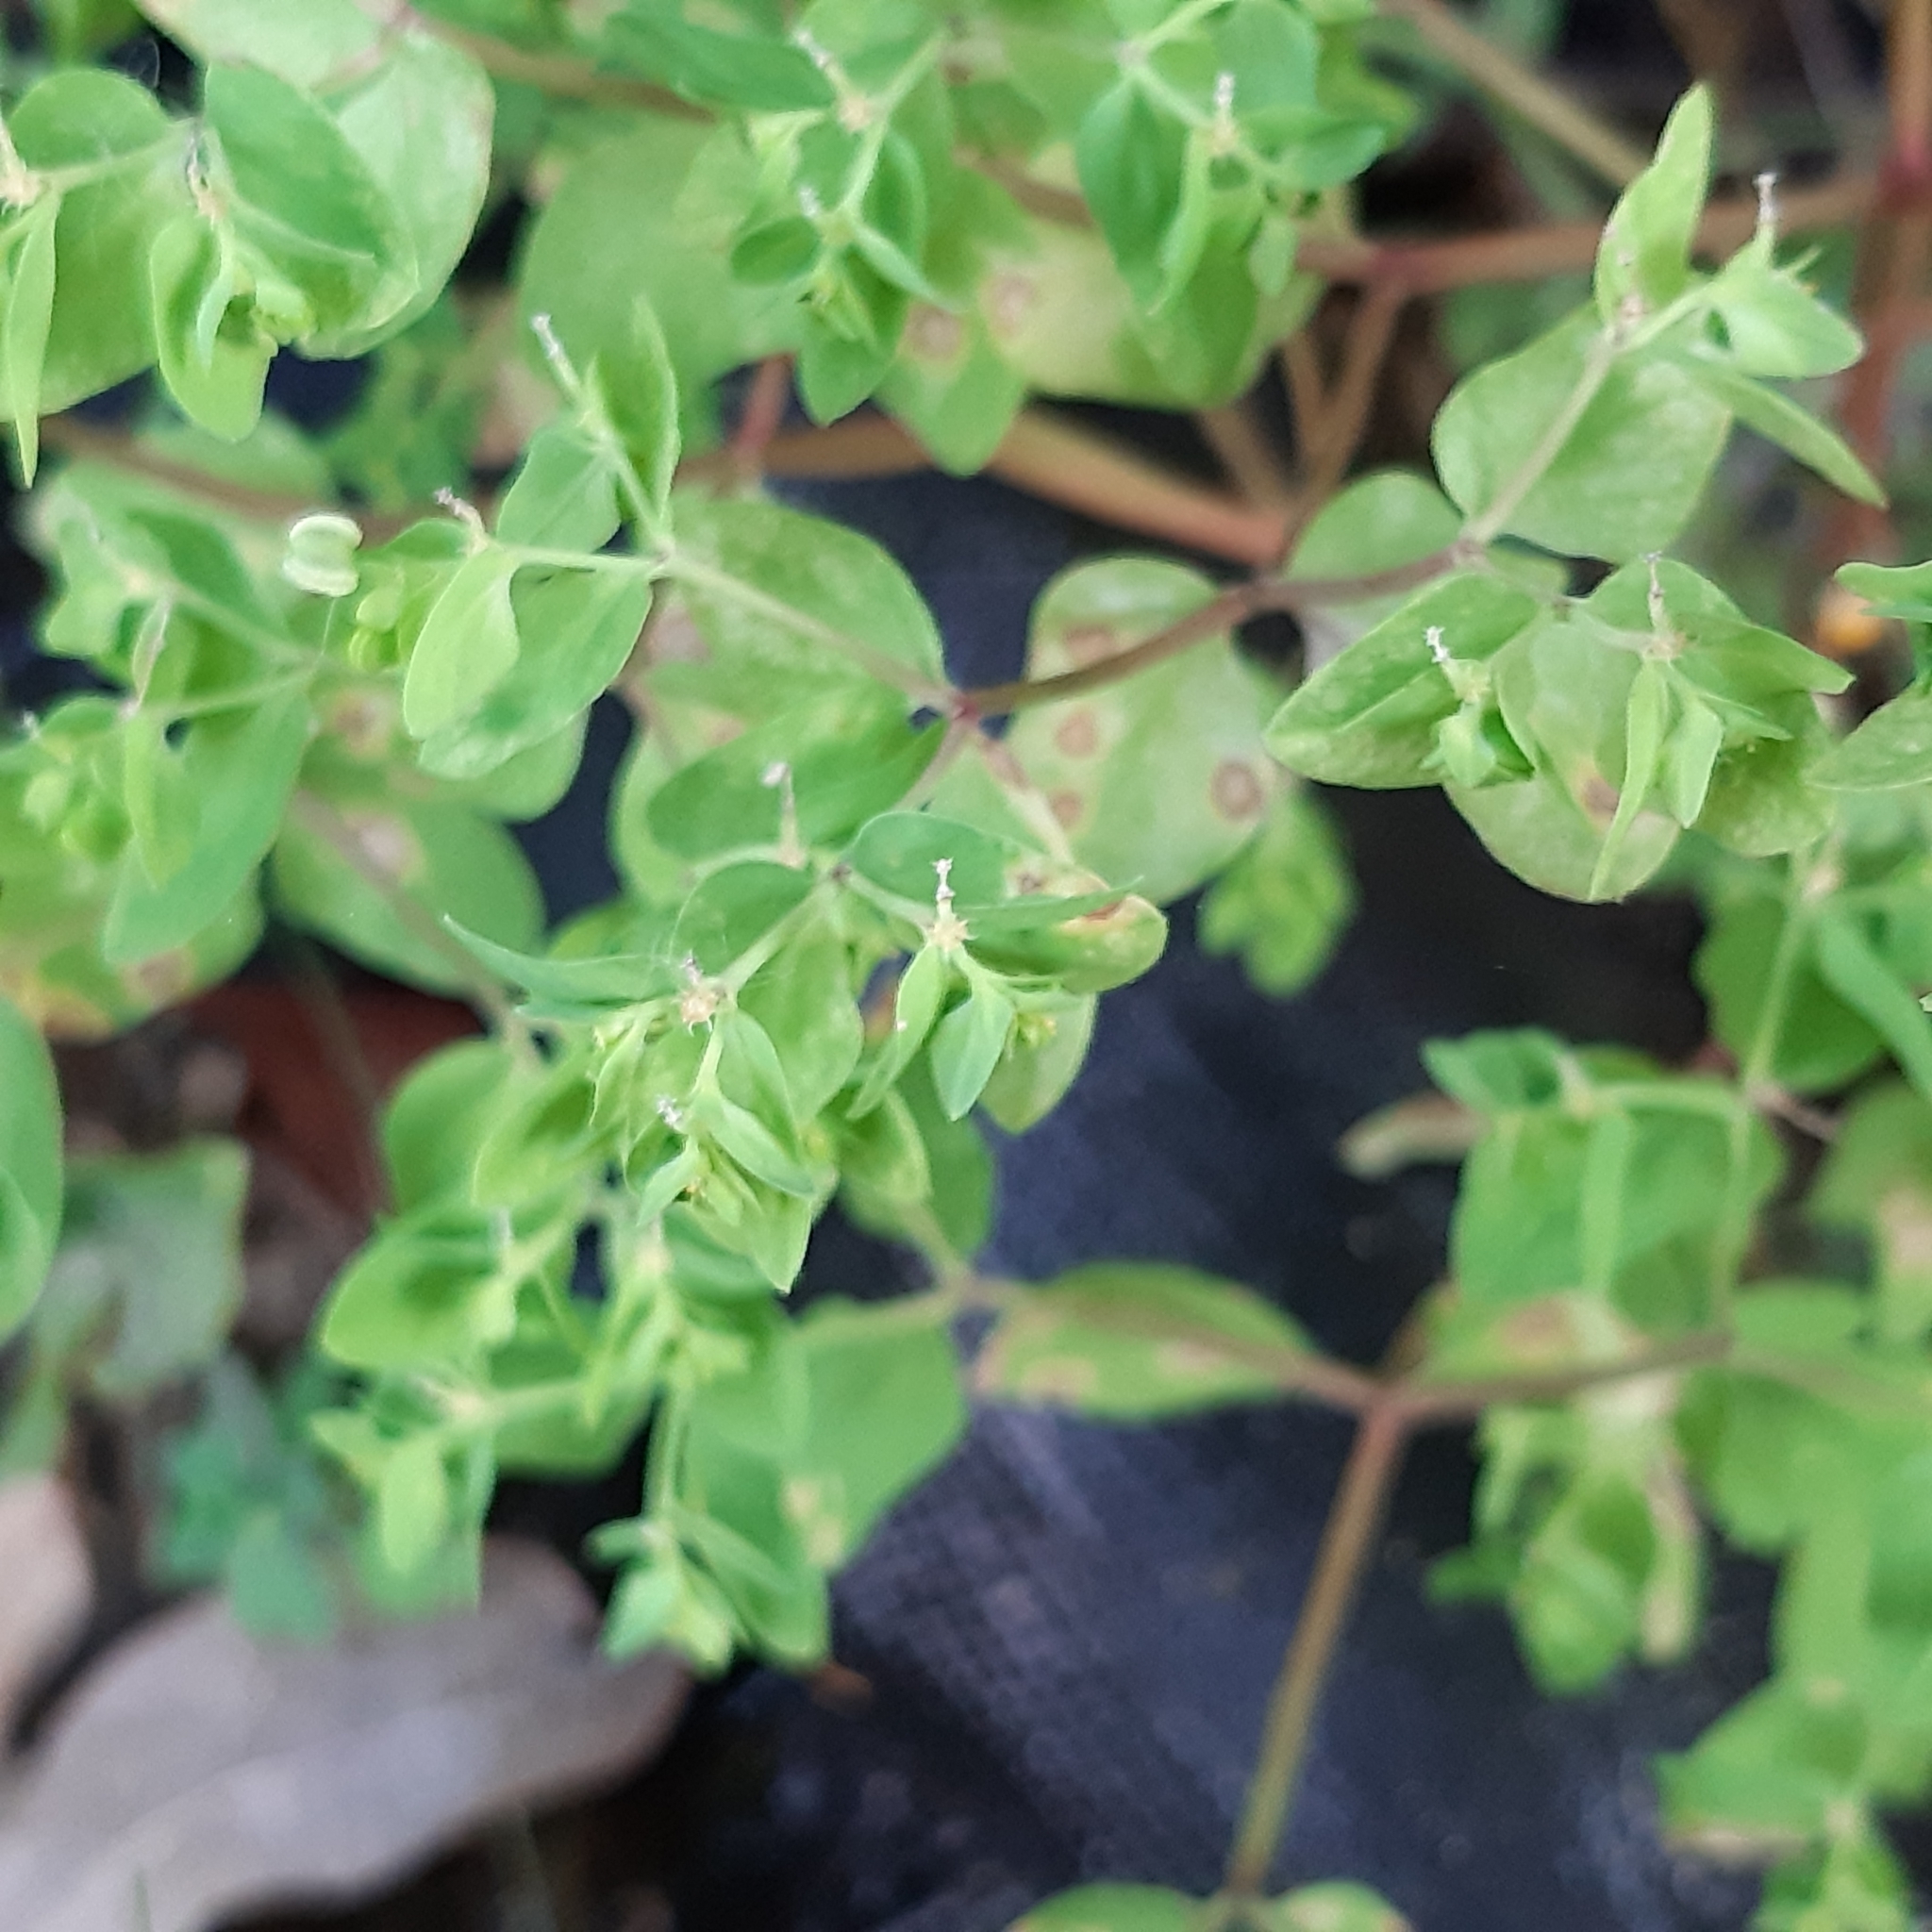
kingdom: Plantae
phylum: Tracheophyta
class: Magnoliopsida
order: Malpighiales
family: Euphorbiaceae
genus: Euphorbia
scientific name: Euphorbia peplus
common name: Petty spurge
